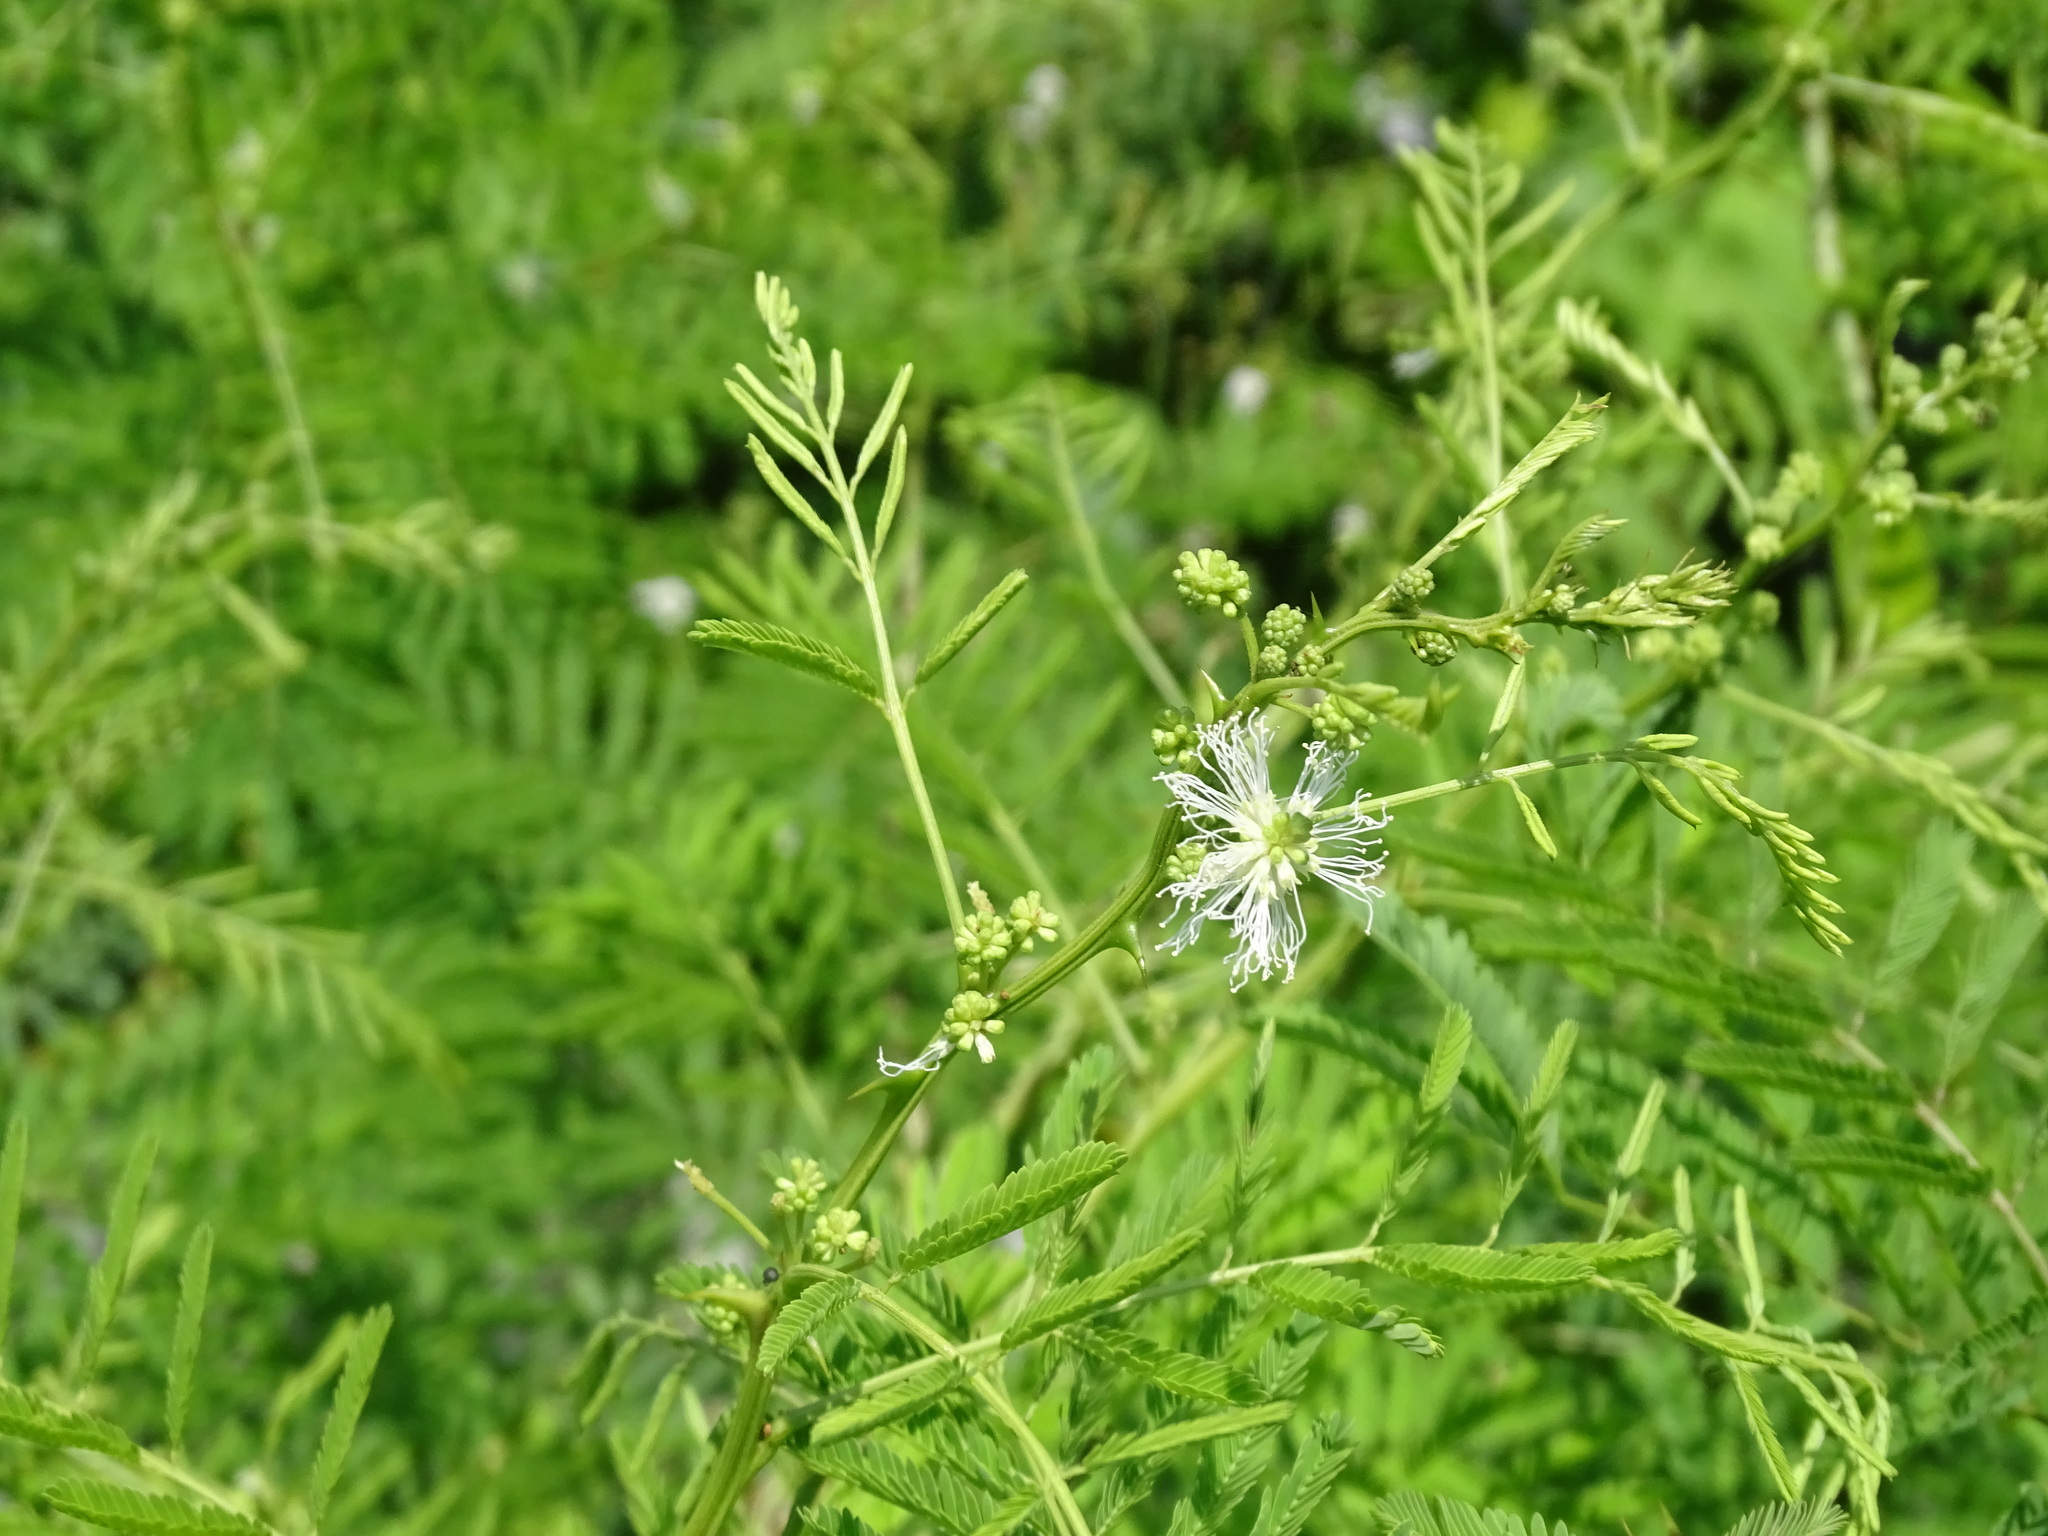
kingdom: Plantae
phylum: Tracheophyta
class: Magnoliopsida
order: Fabales
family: Fabaceae
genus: Mimosa
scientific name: Mimosa acantholoba
